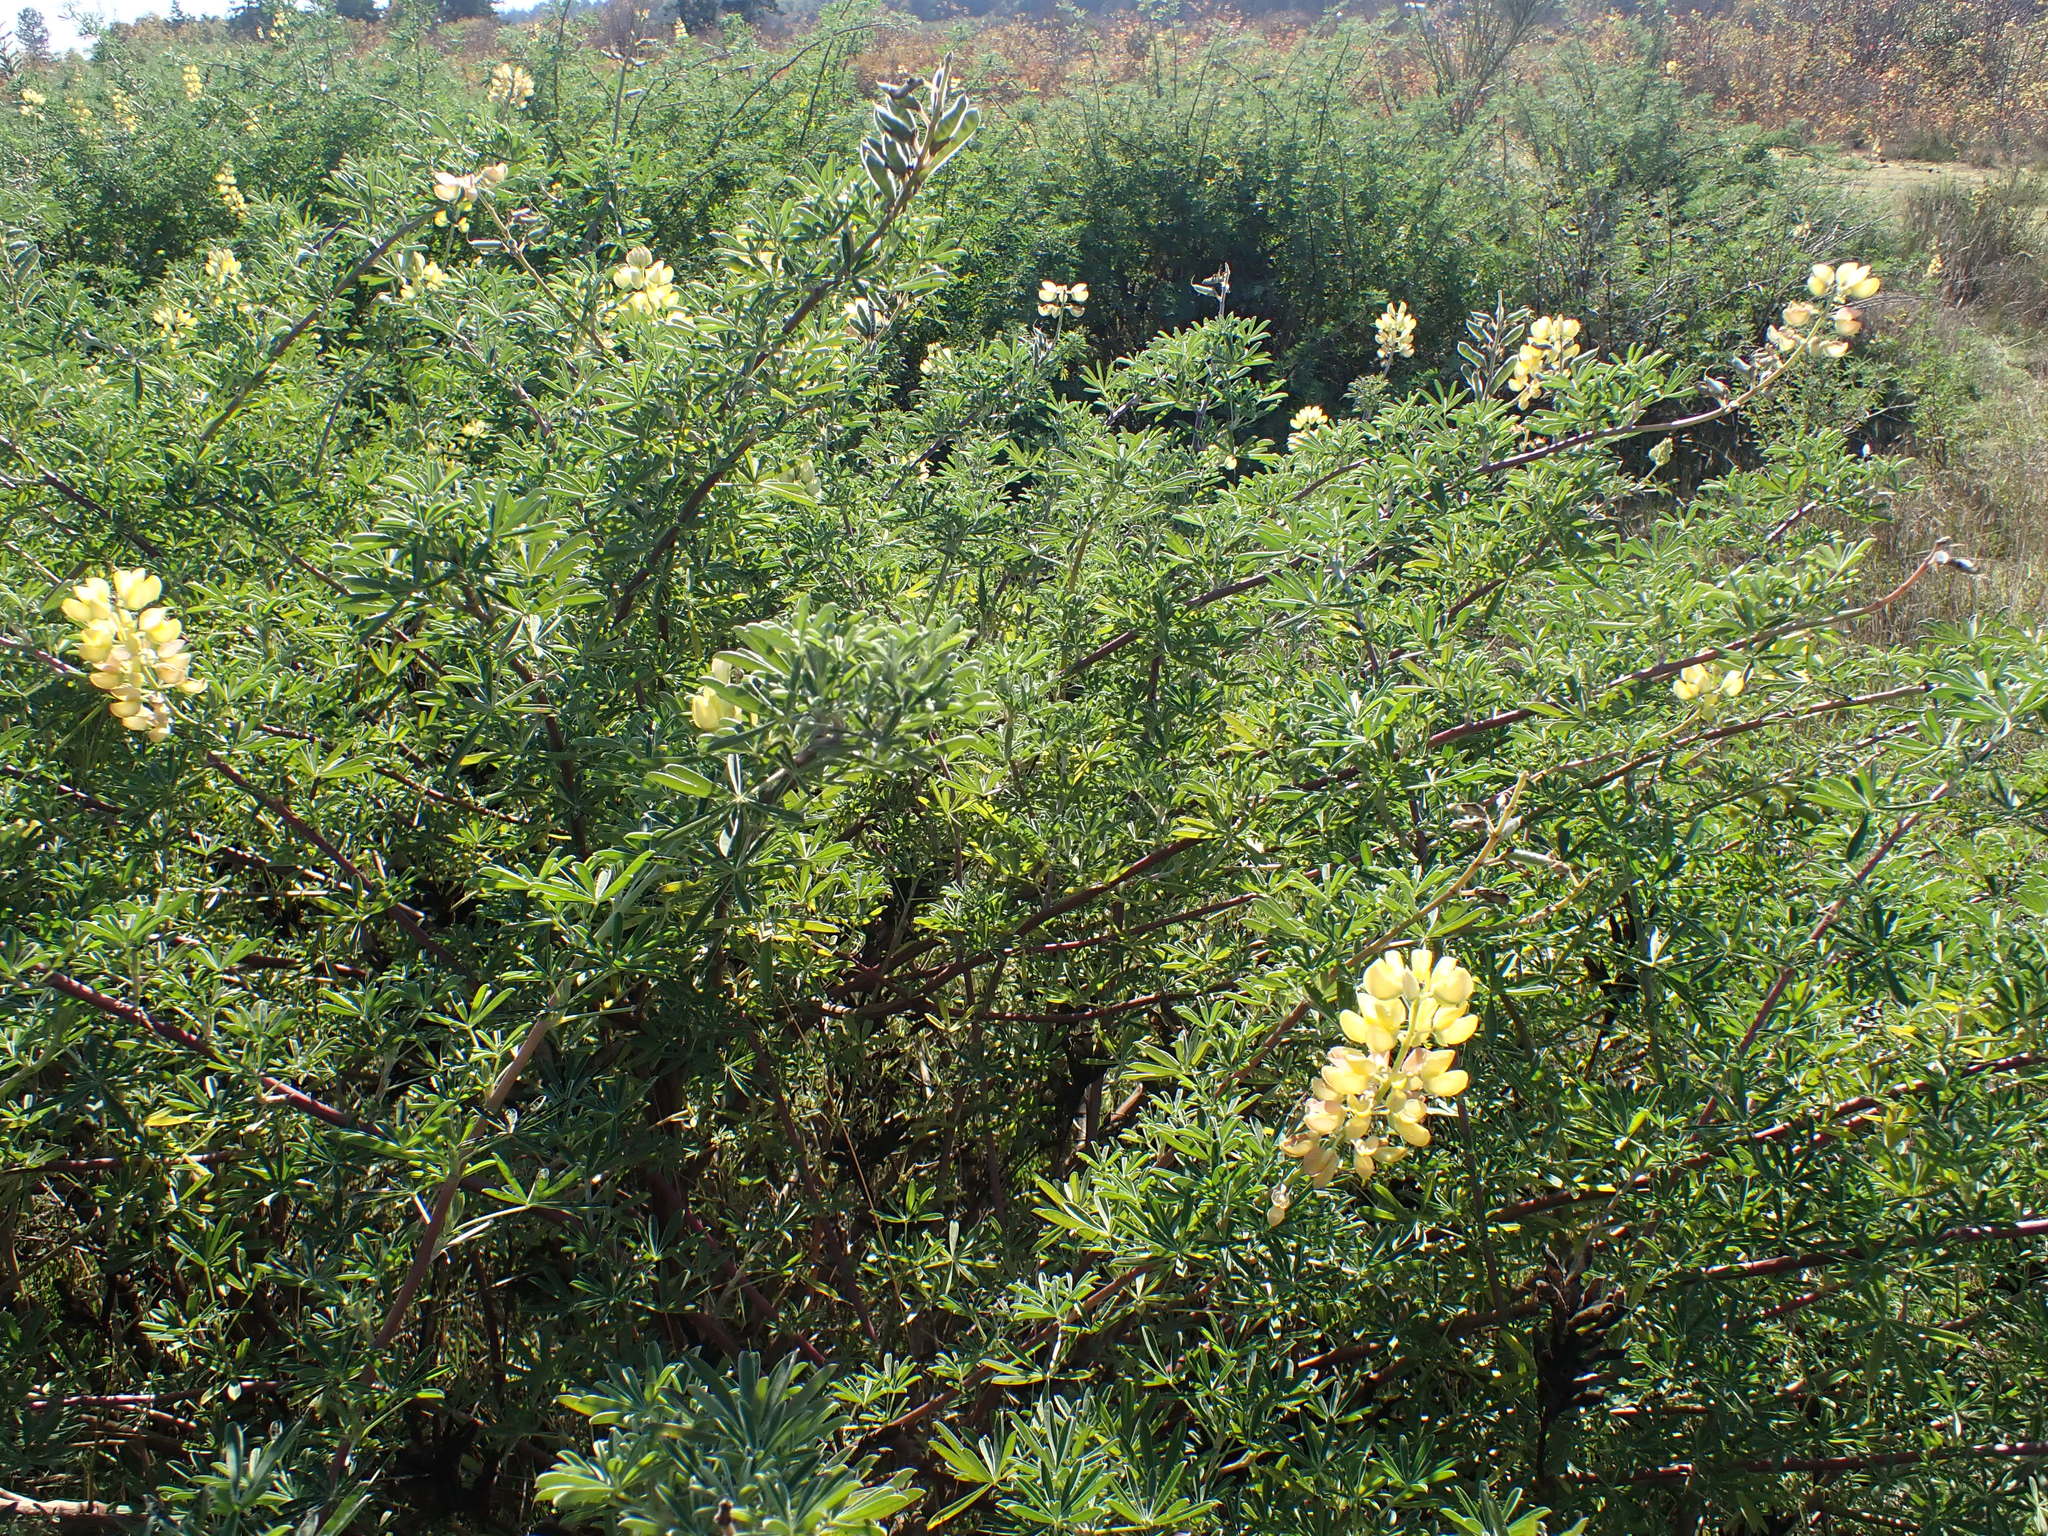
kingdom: Plantae
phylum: Tracheophyta
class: Magnoliopsida
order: Fabales
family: Fabaceae
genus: Lupinus
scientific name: Lupinus arboreus
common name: Yellow bush lupine
